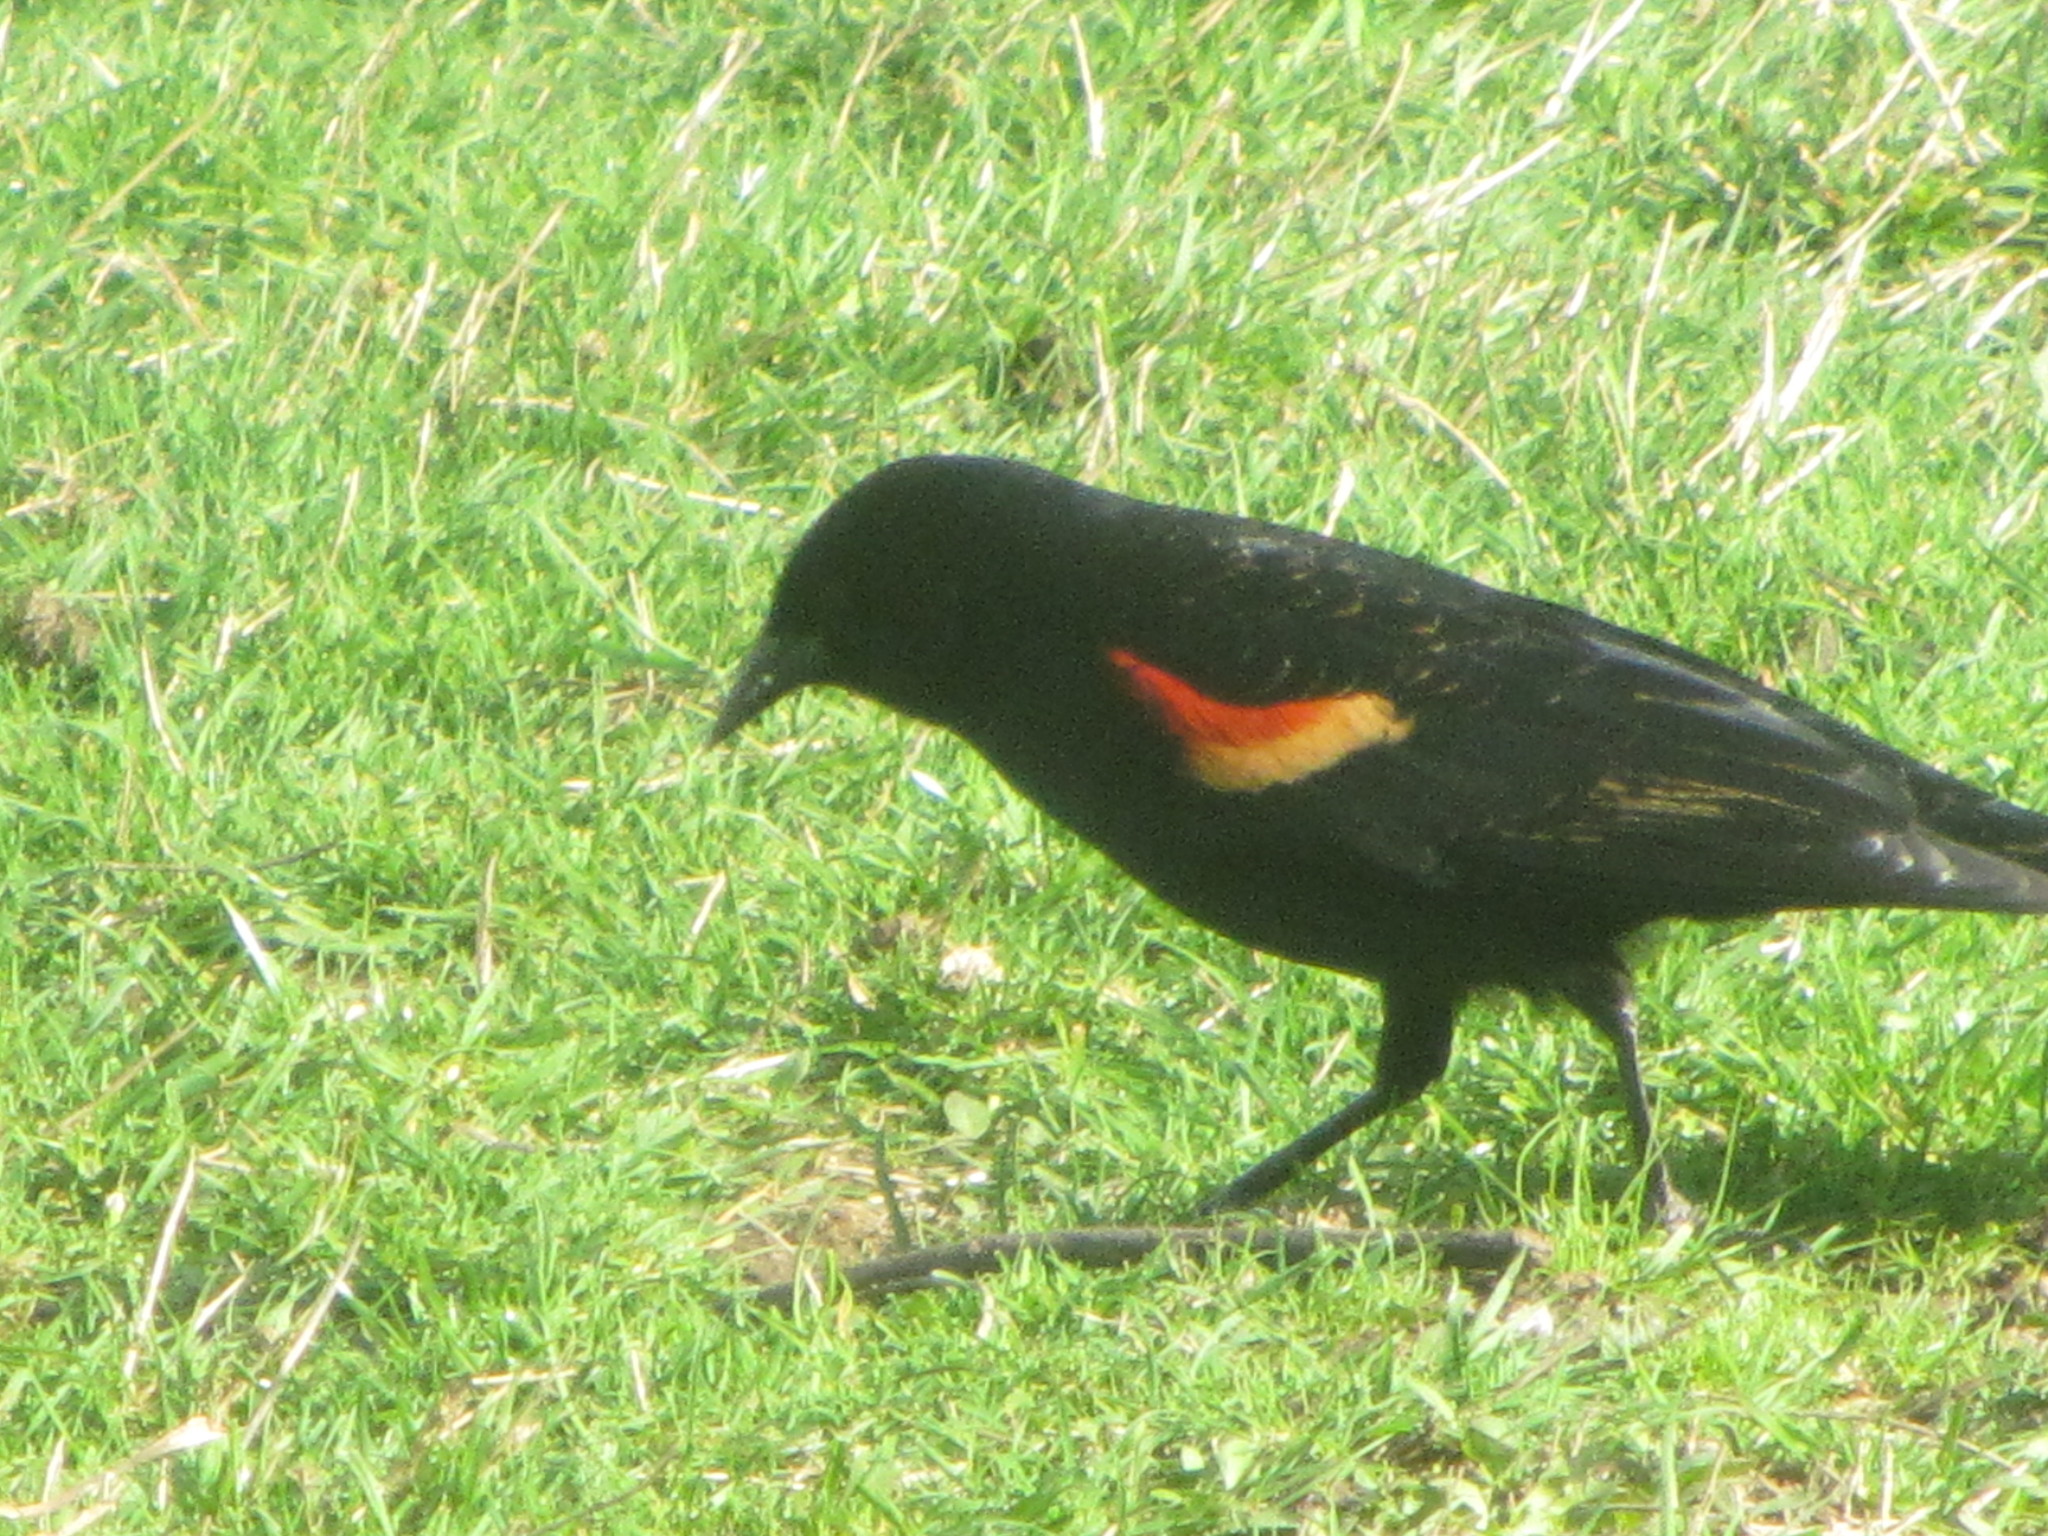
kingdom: Animalia
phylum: Chordata
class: Aves
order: Passeriformes
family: Icteridae
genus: Agelaius
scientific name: Agelaius phoeniceus
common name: Red-winged blackbird
